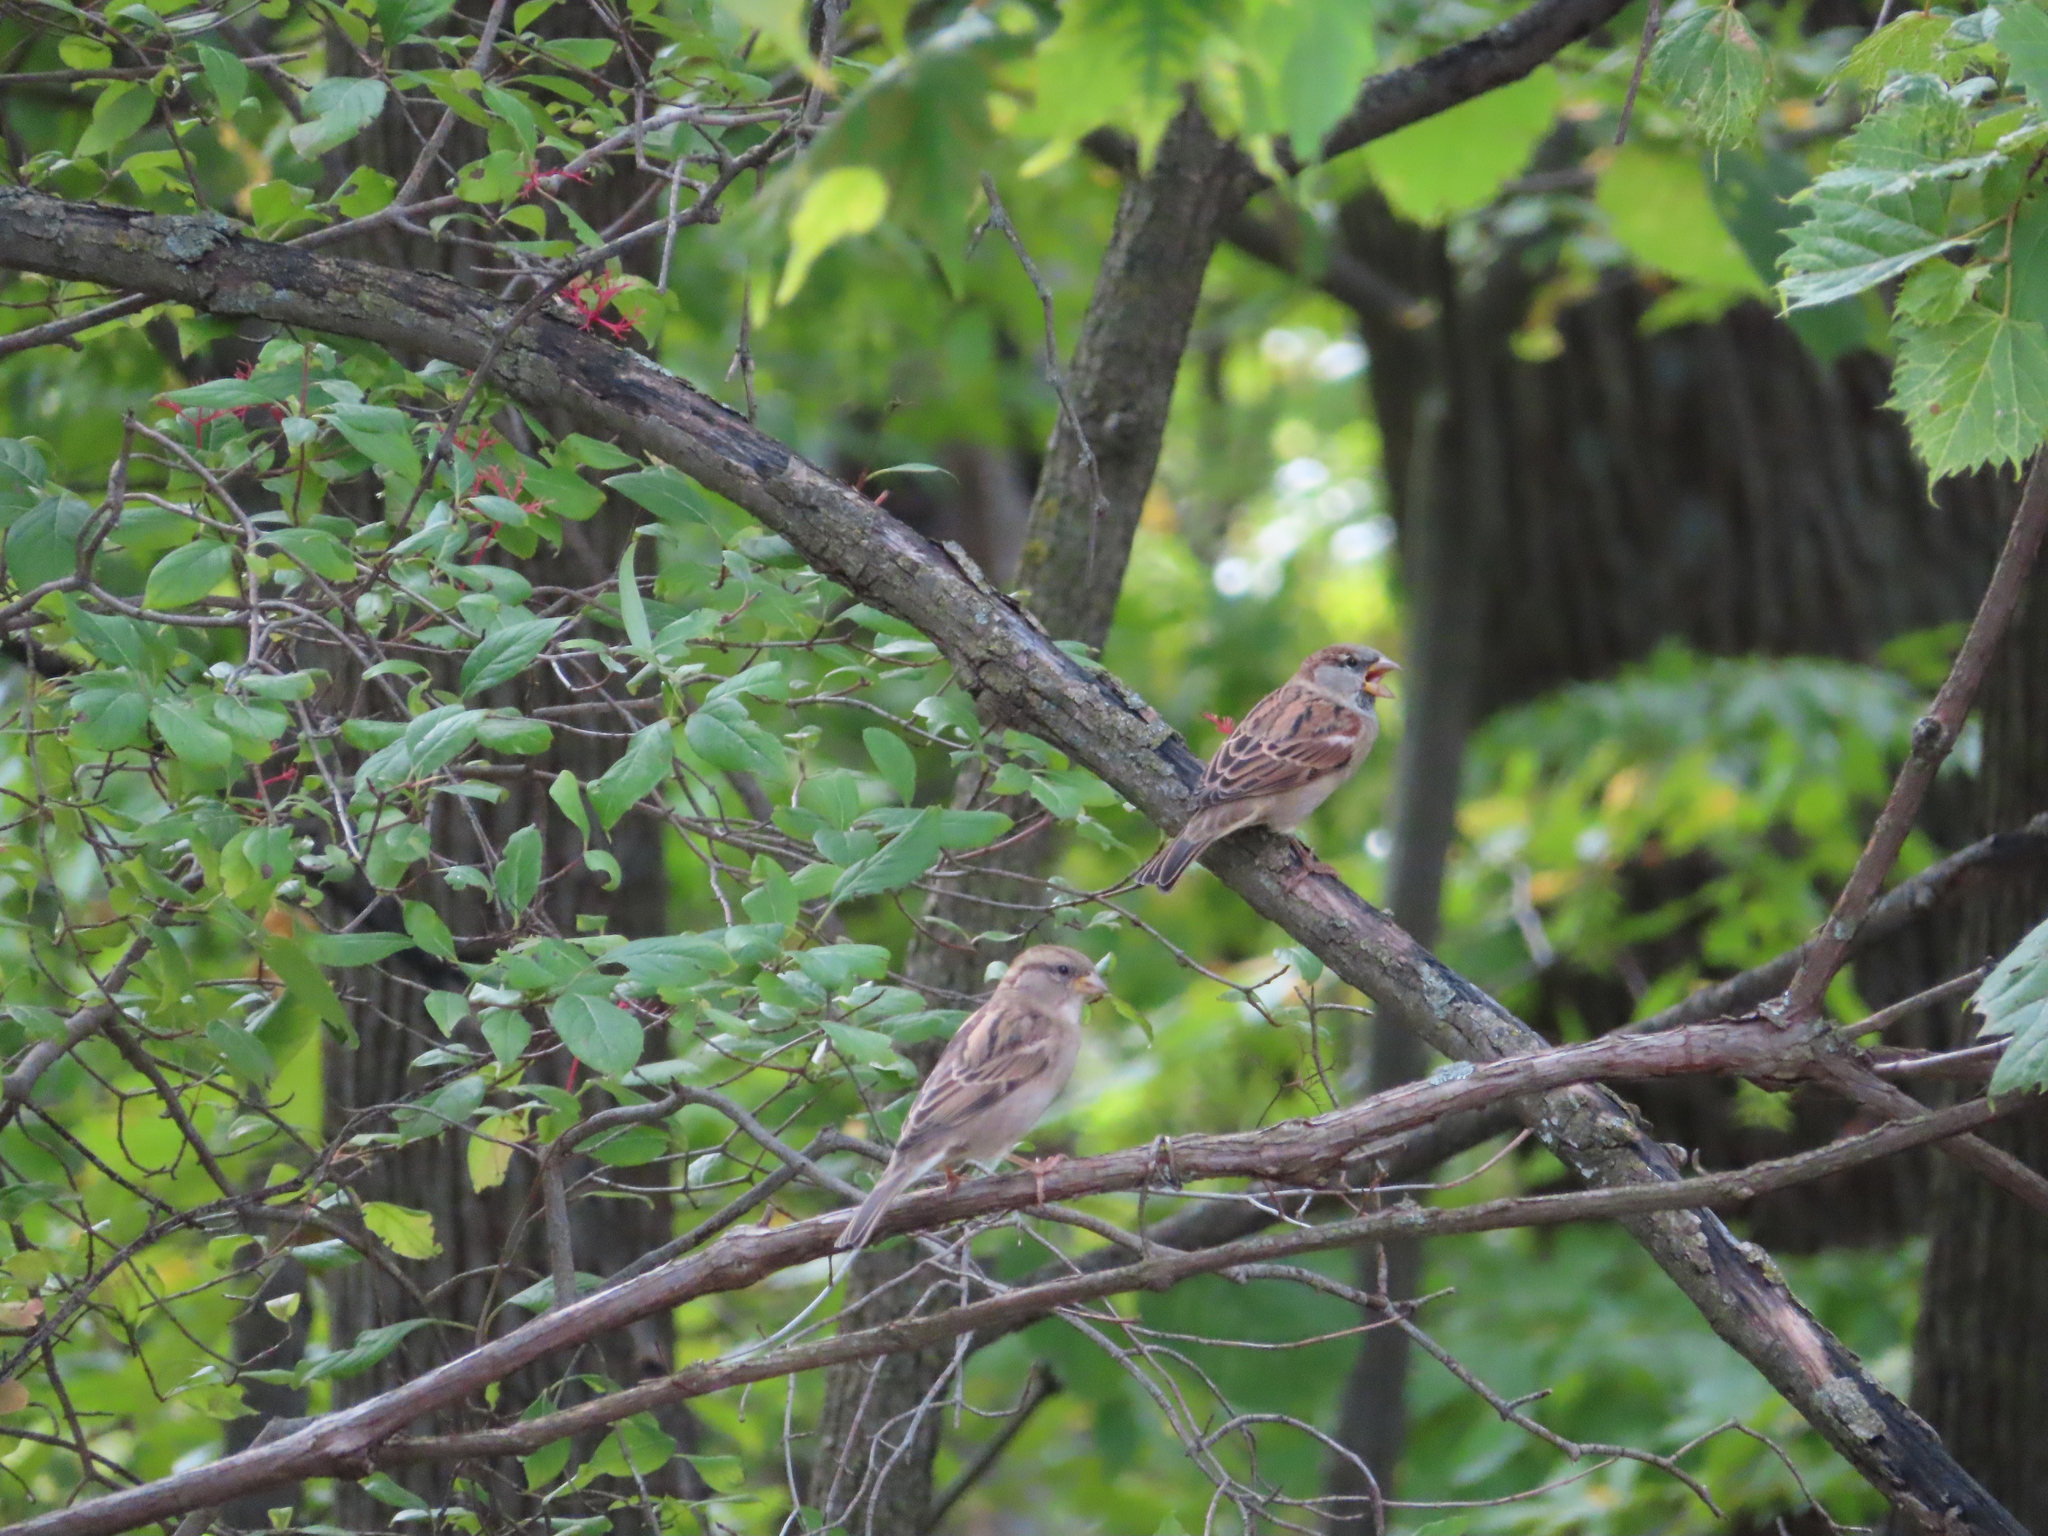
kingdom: Animalia
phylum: Chordata
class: Aves
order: Passeriformes
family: Passeridae
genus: Passer
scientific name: Passer domesticus
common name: House sparrow
